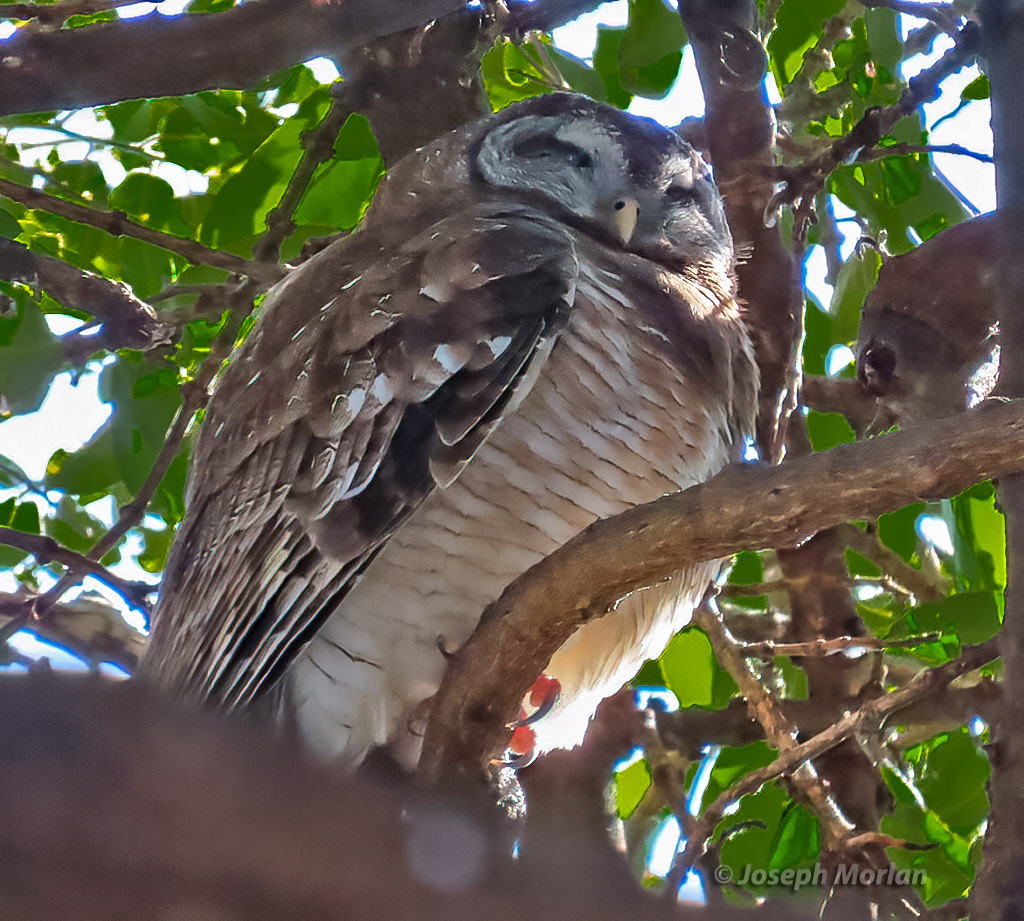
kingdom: Animalia
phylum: Chordata
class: Aves
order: Strigiformes
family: Strigidae
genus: Strix
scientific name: Strix woodfordii
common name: African wood owl
